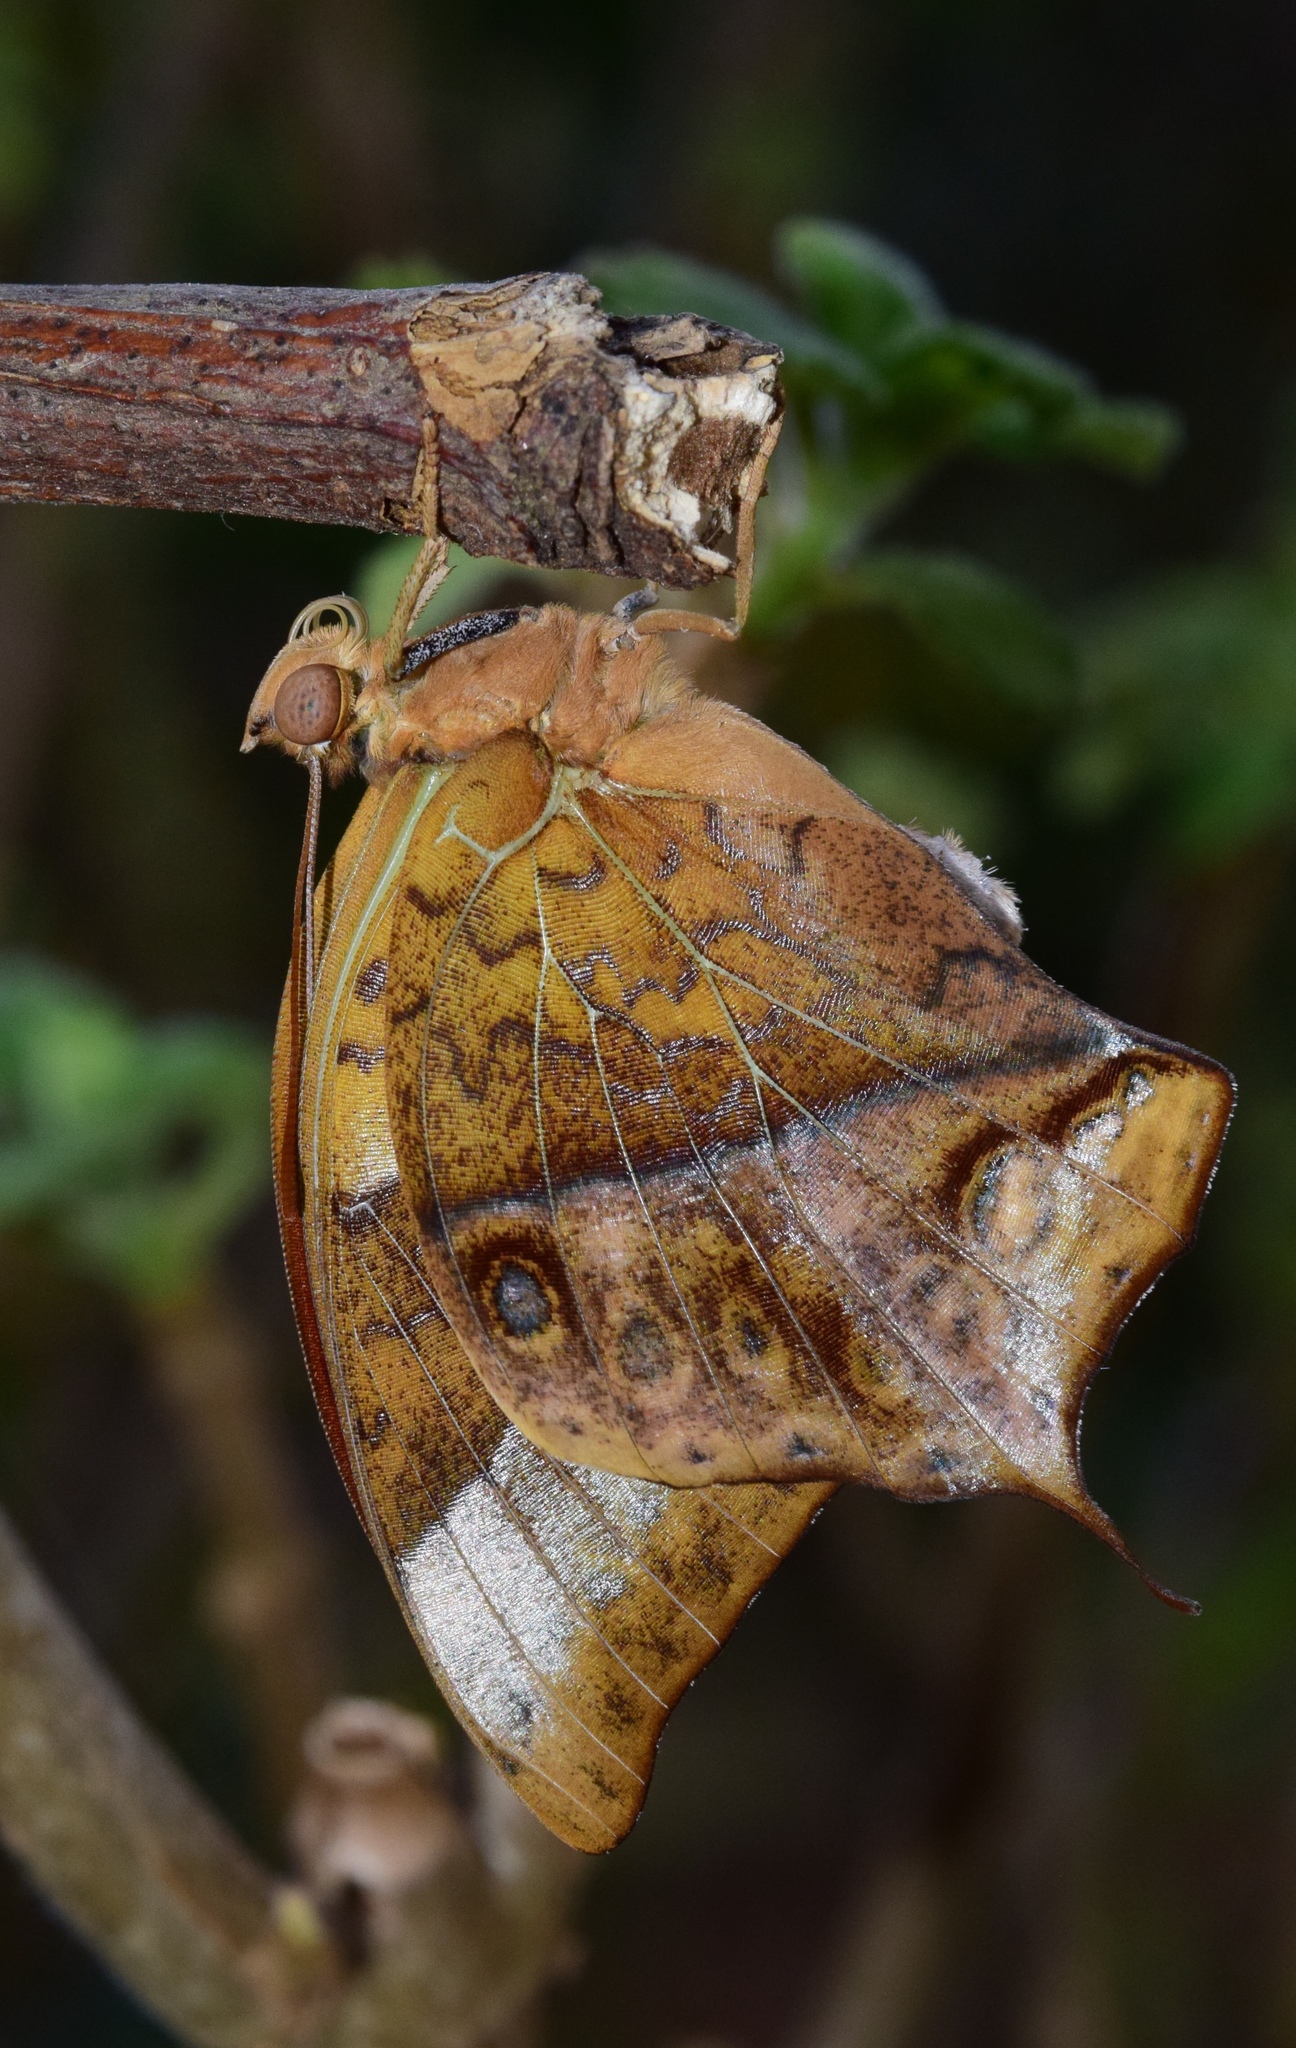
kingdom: Animalia
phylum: Arthropoda
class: Insecta
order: Lepidoptera
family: Nymphalidae
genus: Charaxes
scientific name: Charaxes varanes
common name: Common pearl charaxes
